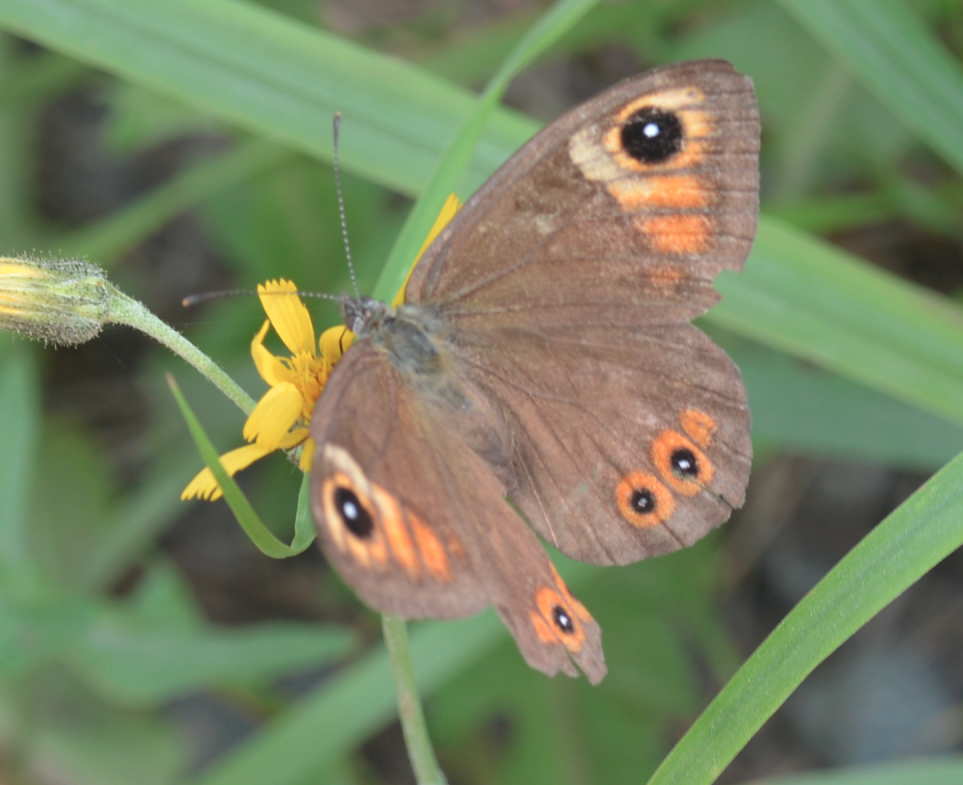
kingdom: Animalia
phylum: Arthropoda
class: Insecta
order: Lepidoptera
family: Nymphalidae
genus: Pararge
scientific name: Pararge Lasiommata maera
